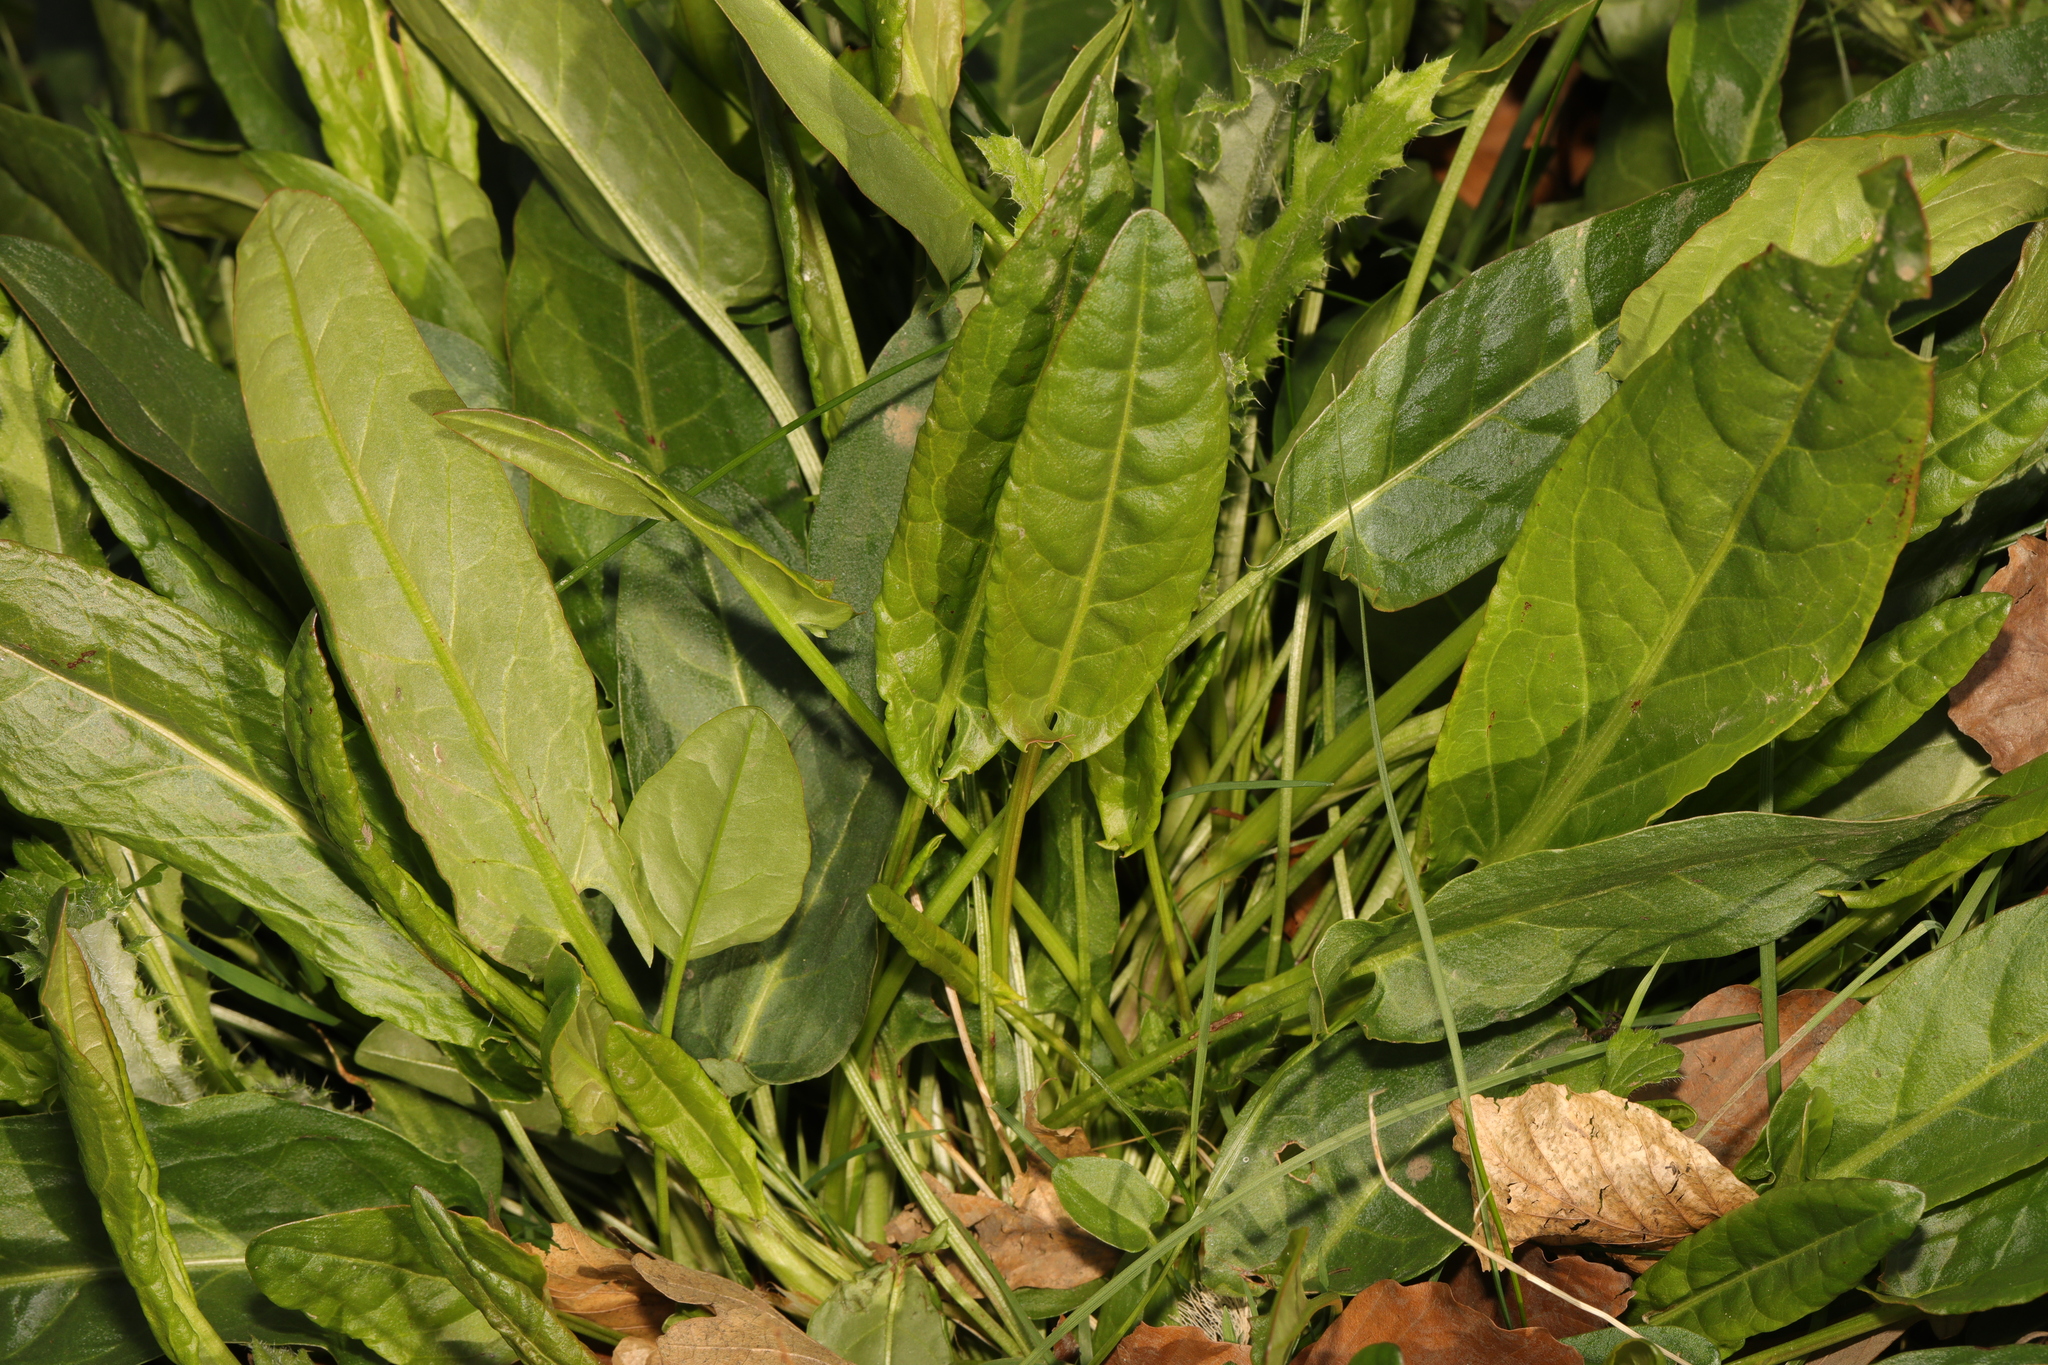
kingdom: Plantae
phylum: Tracheophyta
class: Magnoliopsida
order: Caryophyllales
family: Polygonaceae
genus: Rumex
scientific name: Rumex acetosa
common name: Garden sorrel
